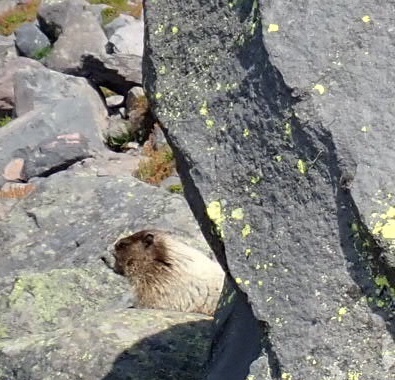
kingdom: Animalia
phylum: Chordata
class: Mammalia
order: Rodentia
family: Sciuridae
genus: Marmota
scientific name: Marmota caligata
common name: Hoary marmot
